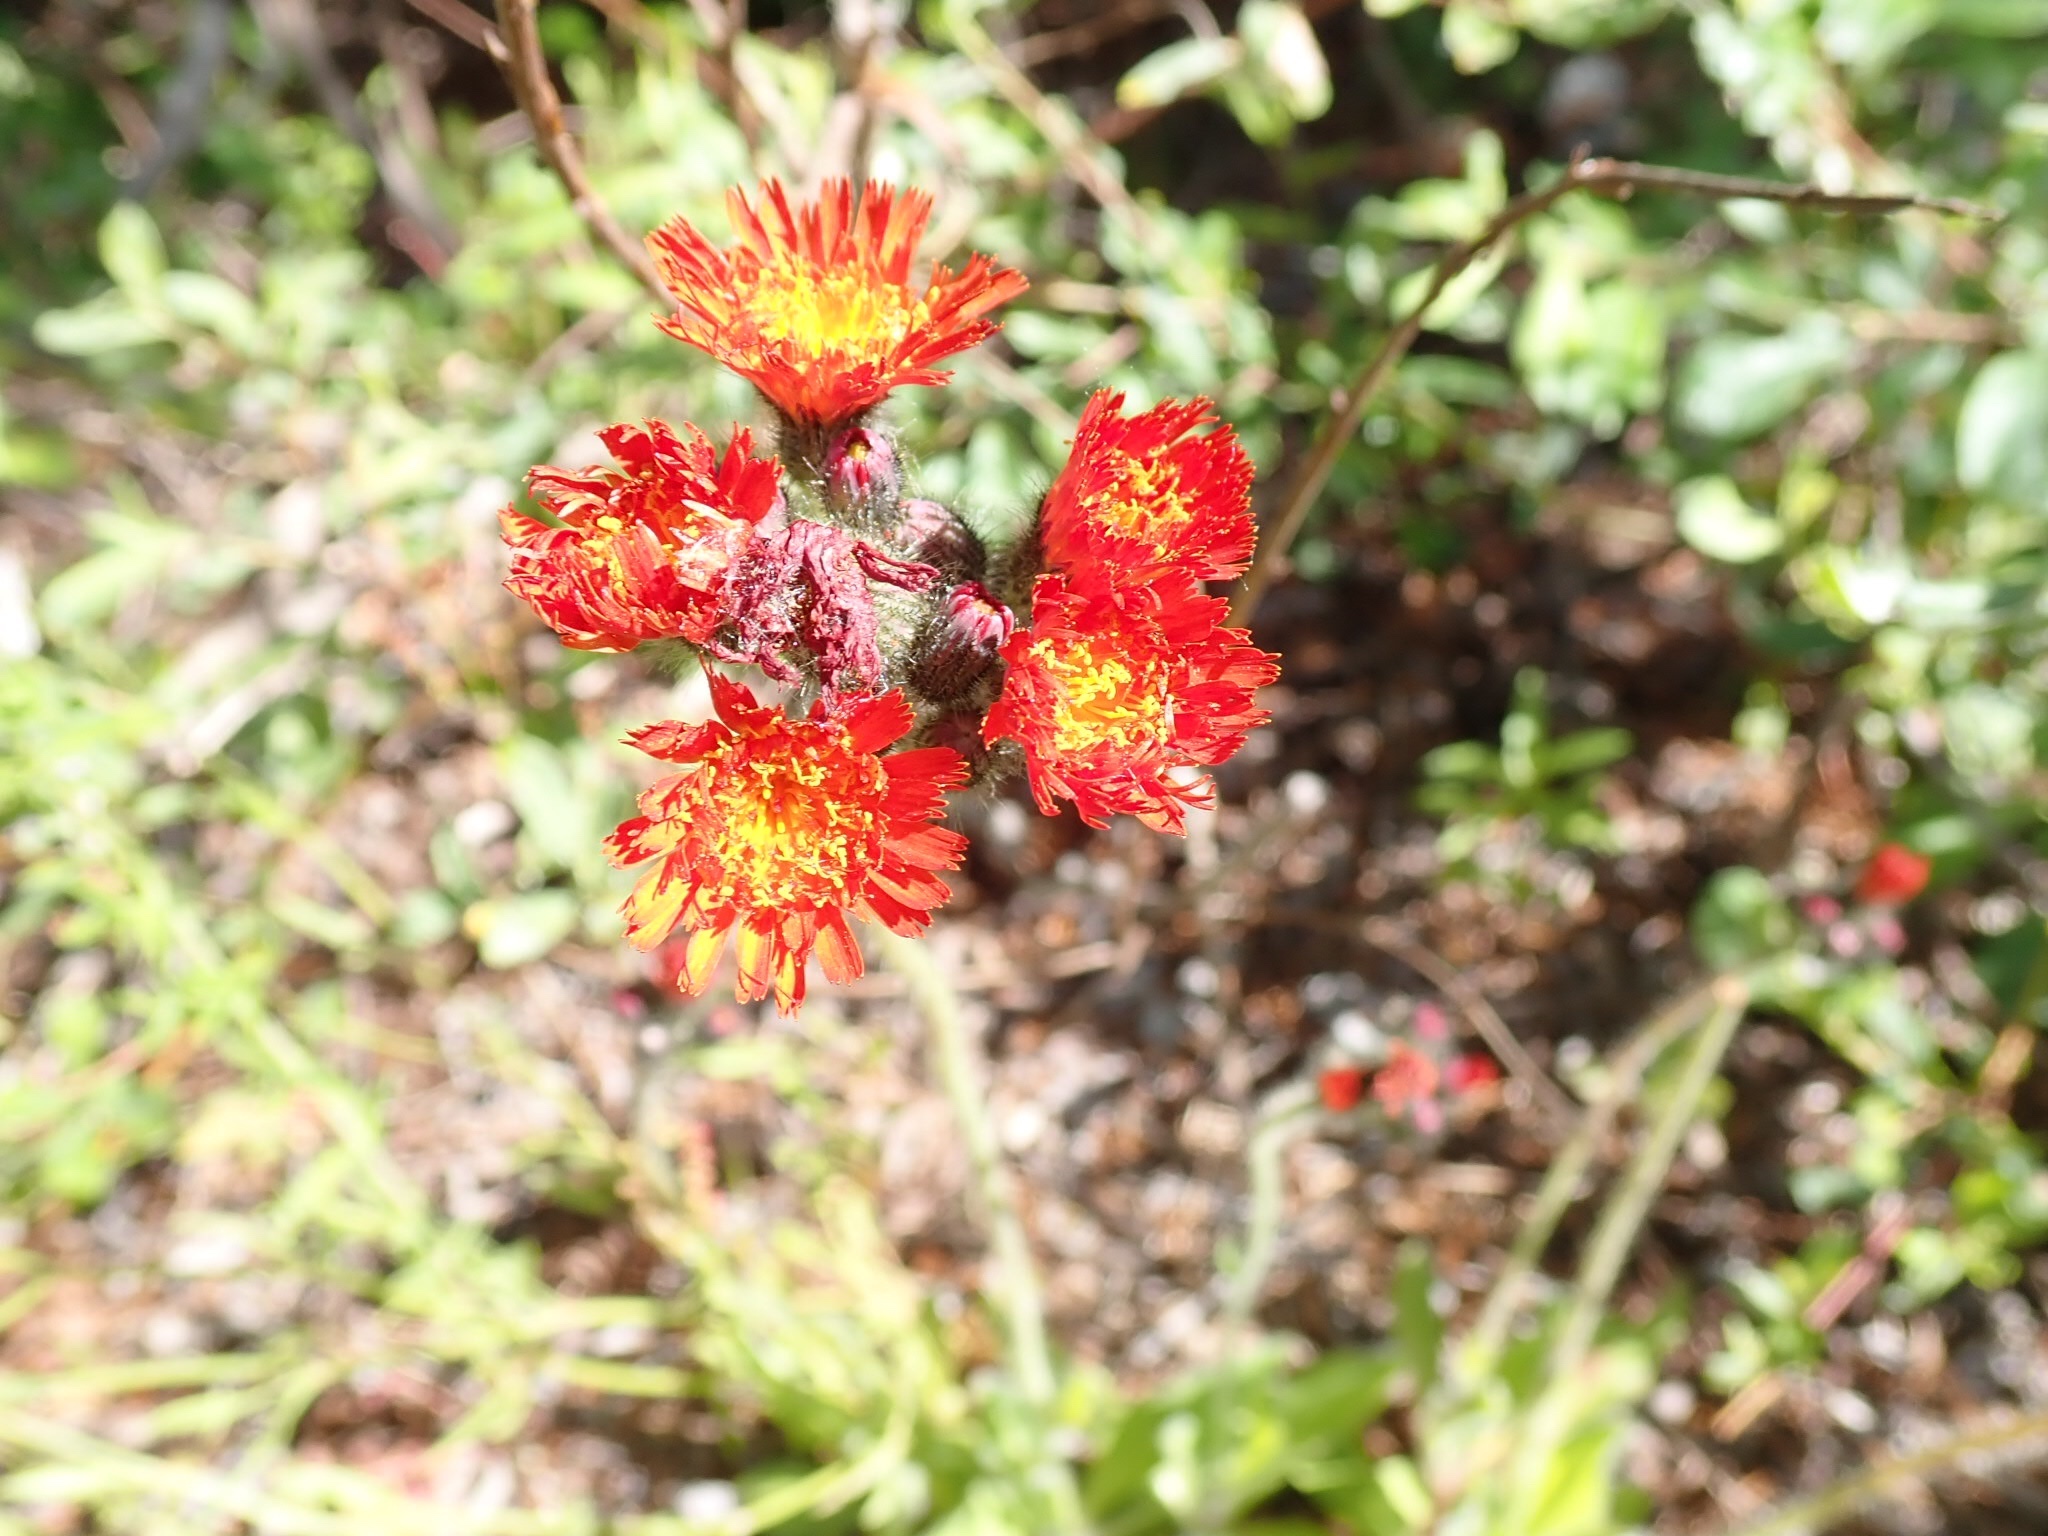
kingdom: Plantae
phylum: Tracheophyta
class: Magnoliopsida
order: Asterales
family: Asteraceae
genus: Pilosella
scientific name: Pilosella aurantiaca
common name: Fox-and-cubs
